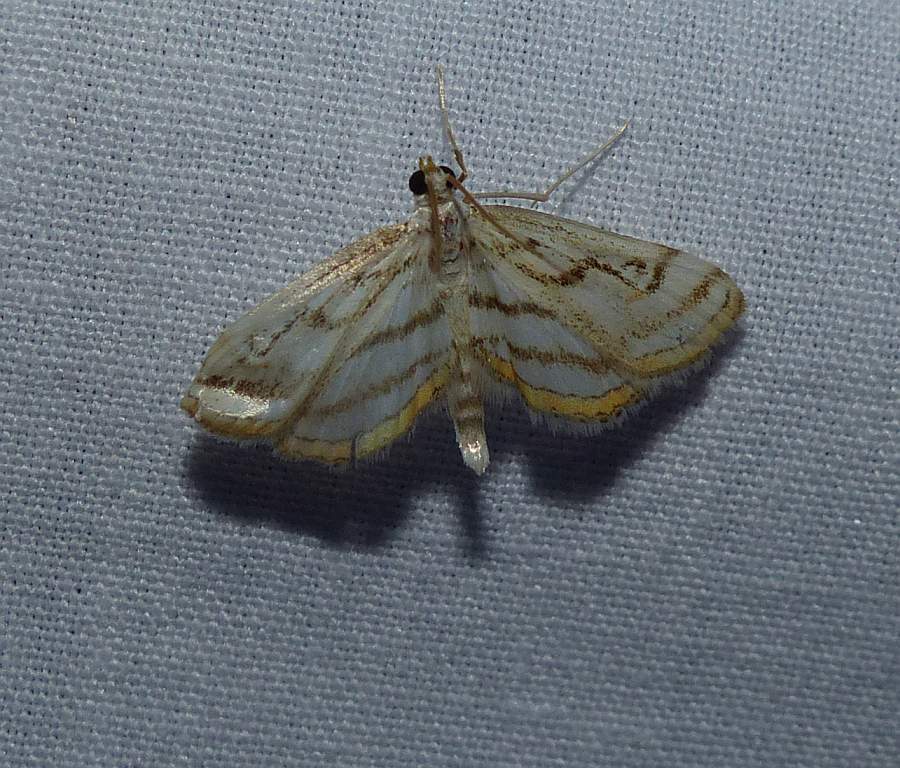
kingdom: Animalia
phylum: Arthropoda
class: Insecta
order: Lepidoptera
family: Crambidae
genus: Parapoynx
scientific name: Parapoynx badiusalis
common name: Chestnut-marked pondweed moth
